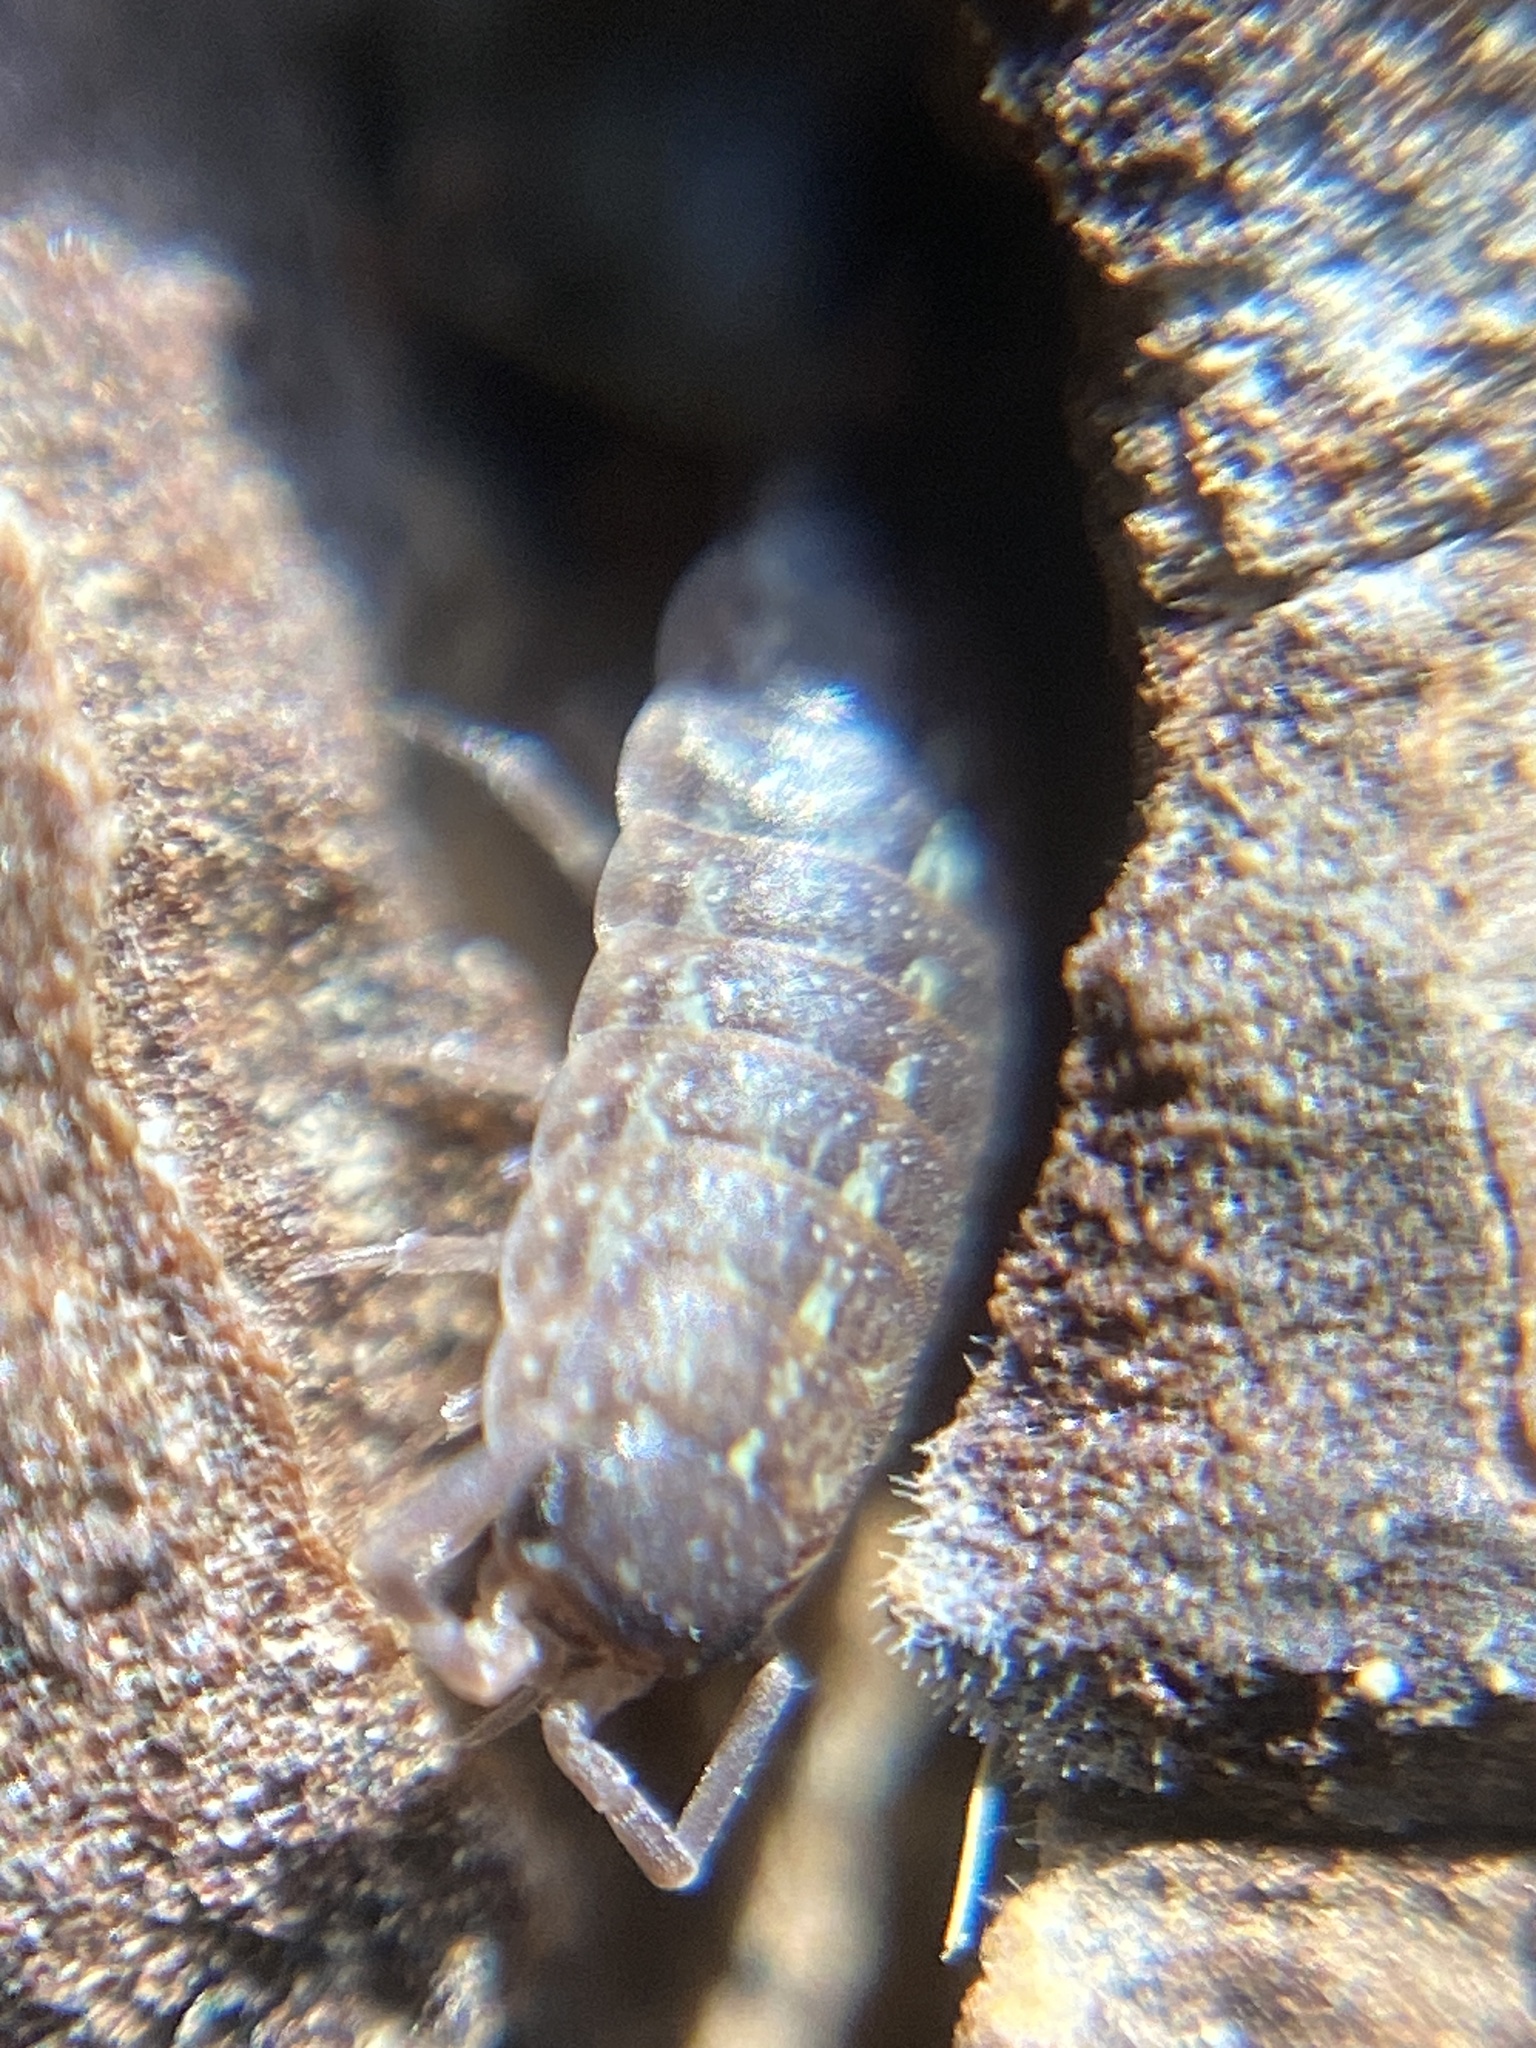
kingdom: Animalia
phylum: Arthropoda
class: Malacostraca
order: Isopoda
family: Porcellionidae
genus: Acaeroplastes
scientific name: Acaeroplastes melanurus
